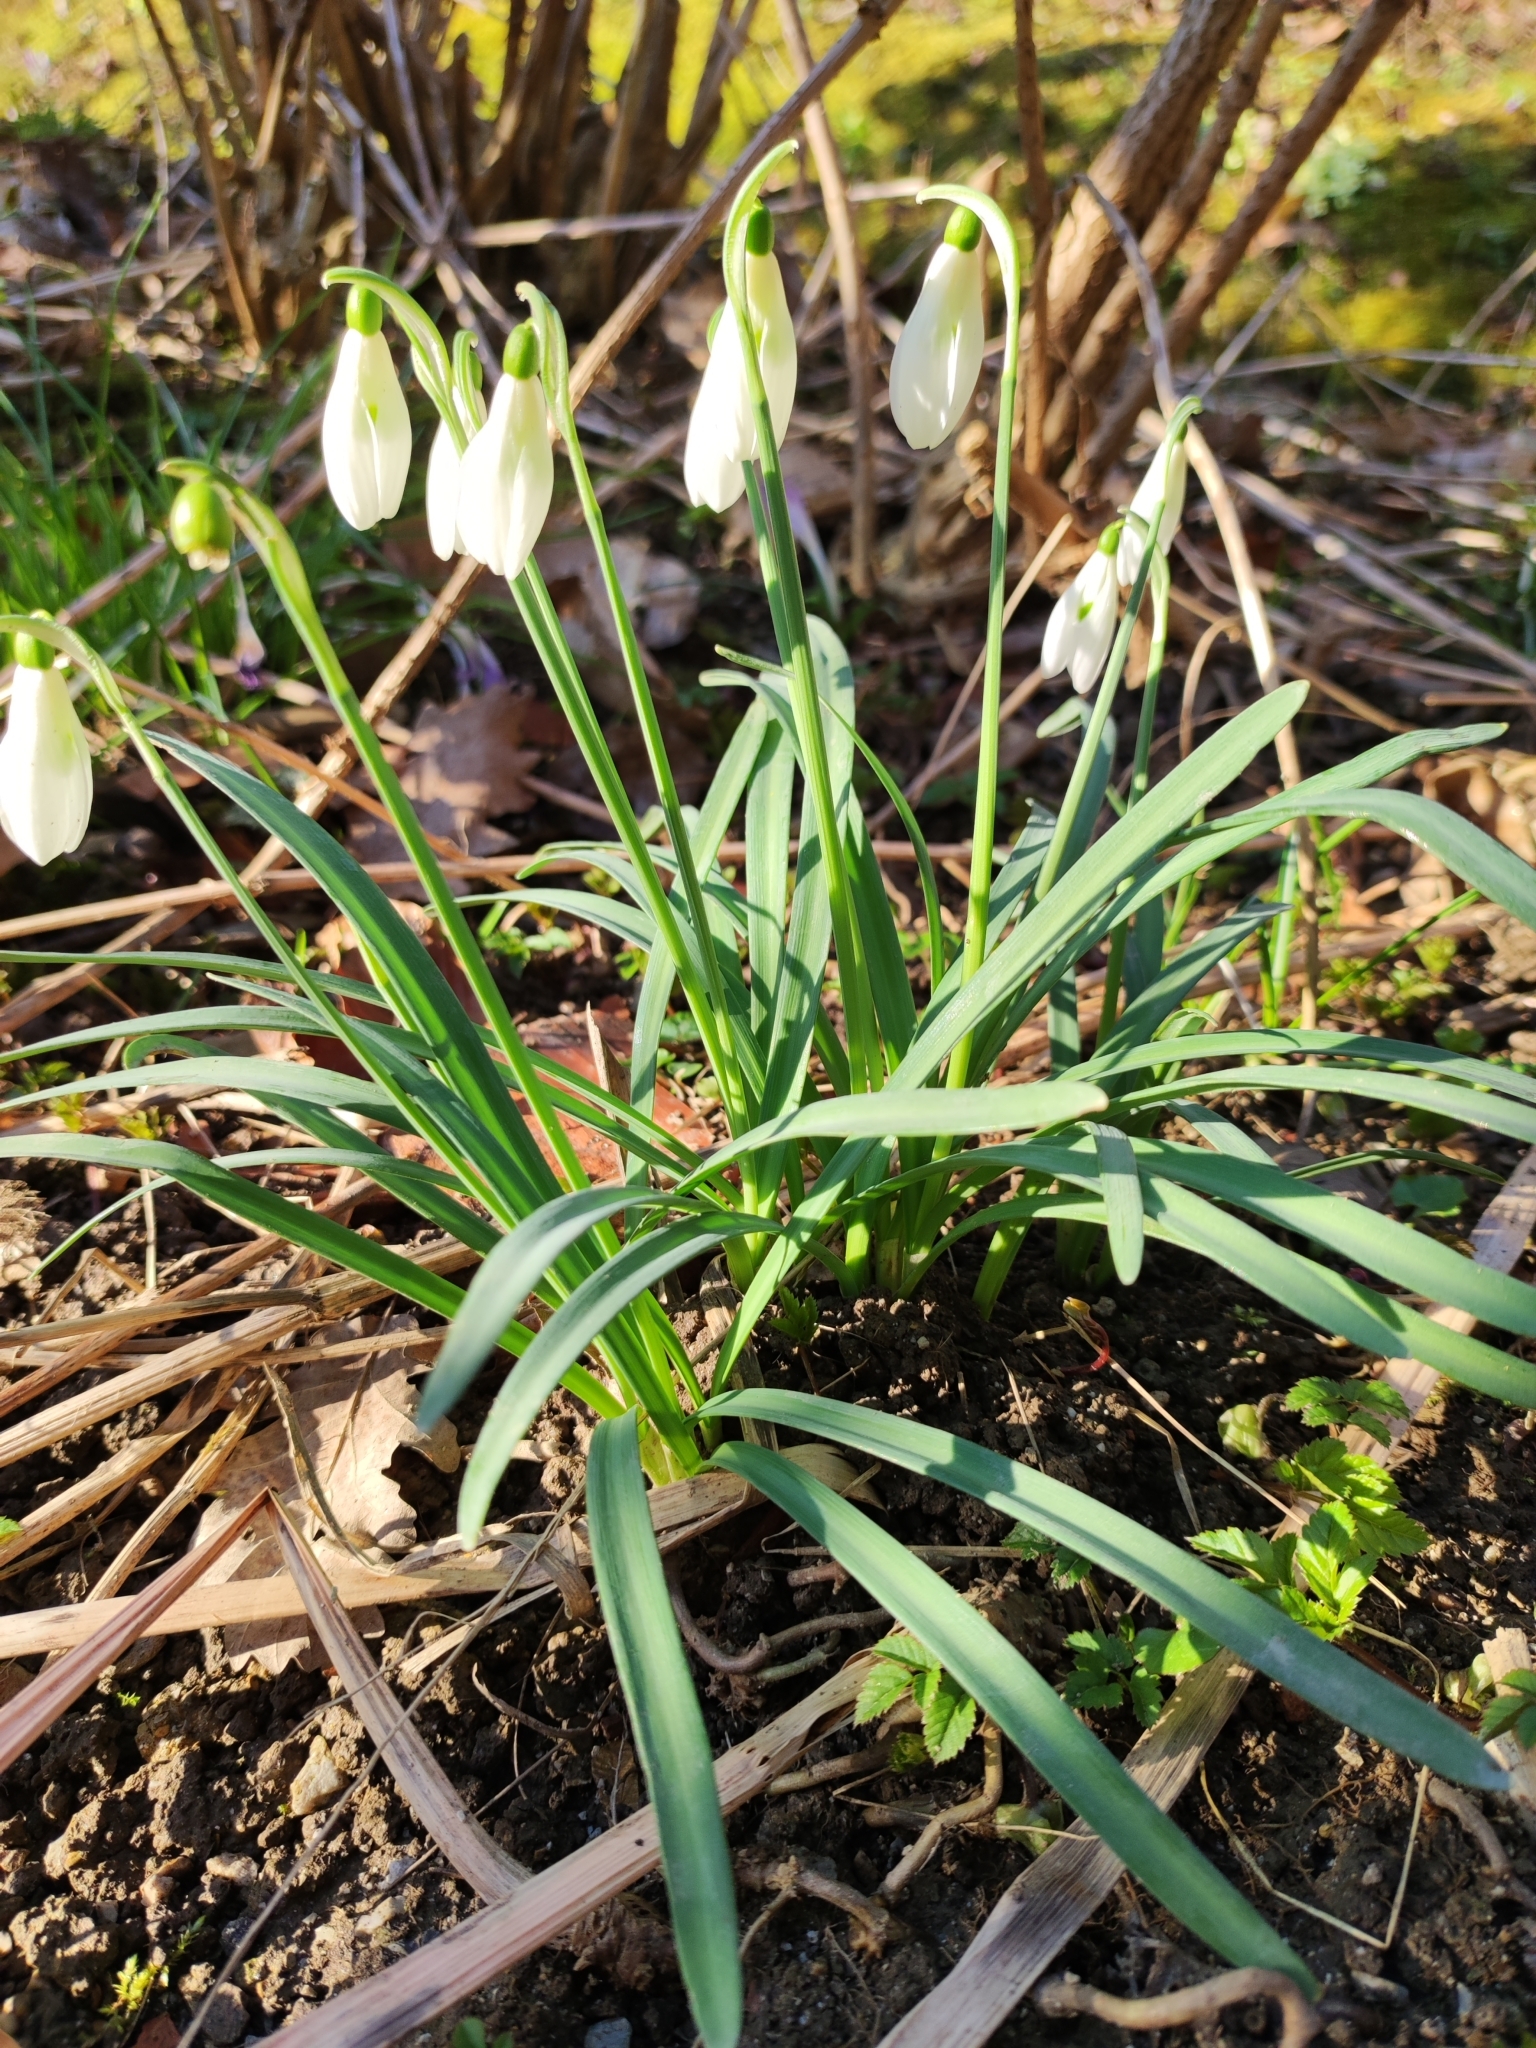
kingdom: Plantae
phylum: Tracheophyta
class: Liliopsida
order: Asparagales
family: Amaryllidaceae
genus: Galanthus
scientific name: Galanthus nivalis
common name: Snowdrop
